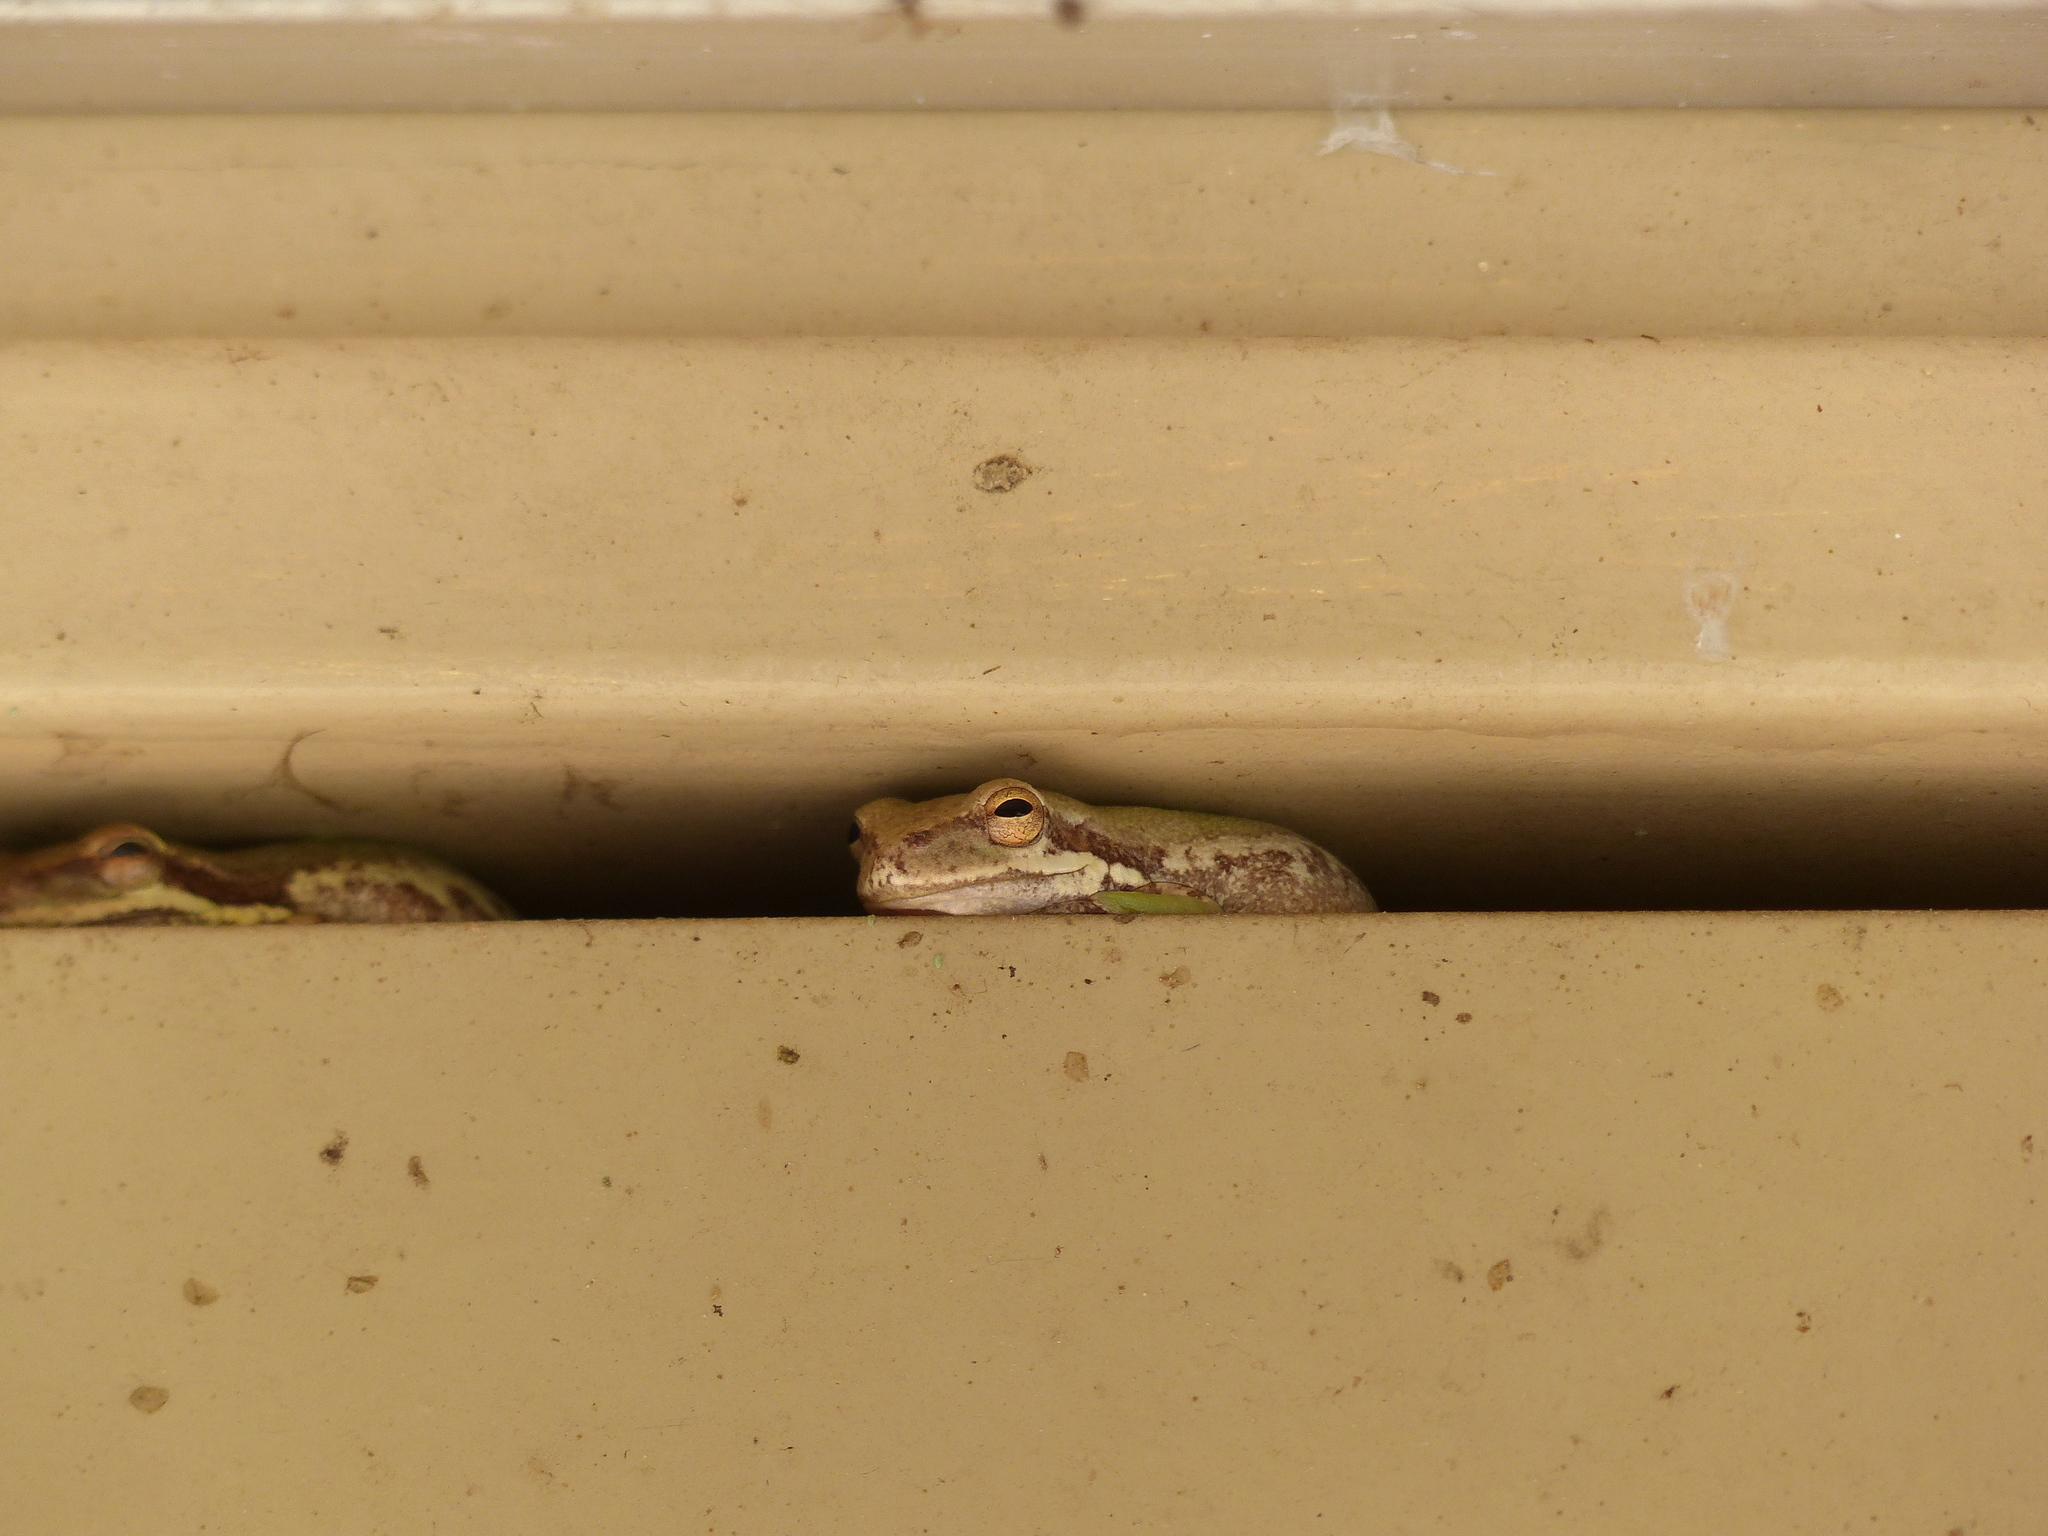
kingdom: Animalia
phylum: Chordata
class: Amphibia
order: Anura
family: Hylidae
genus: Dryophytes
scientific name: Dryophytes squirellus
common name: Squirrel treefrog
